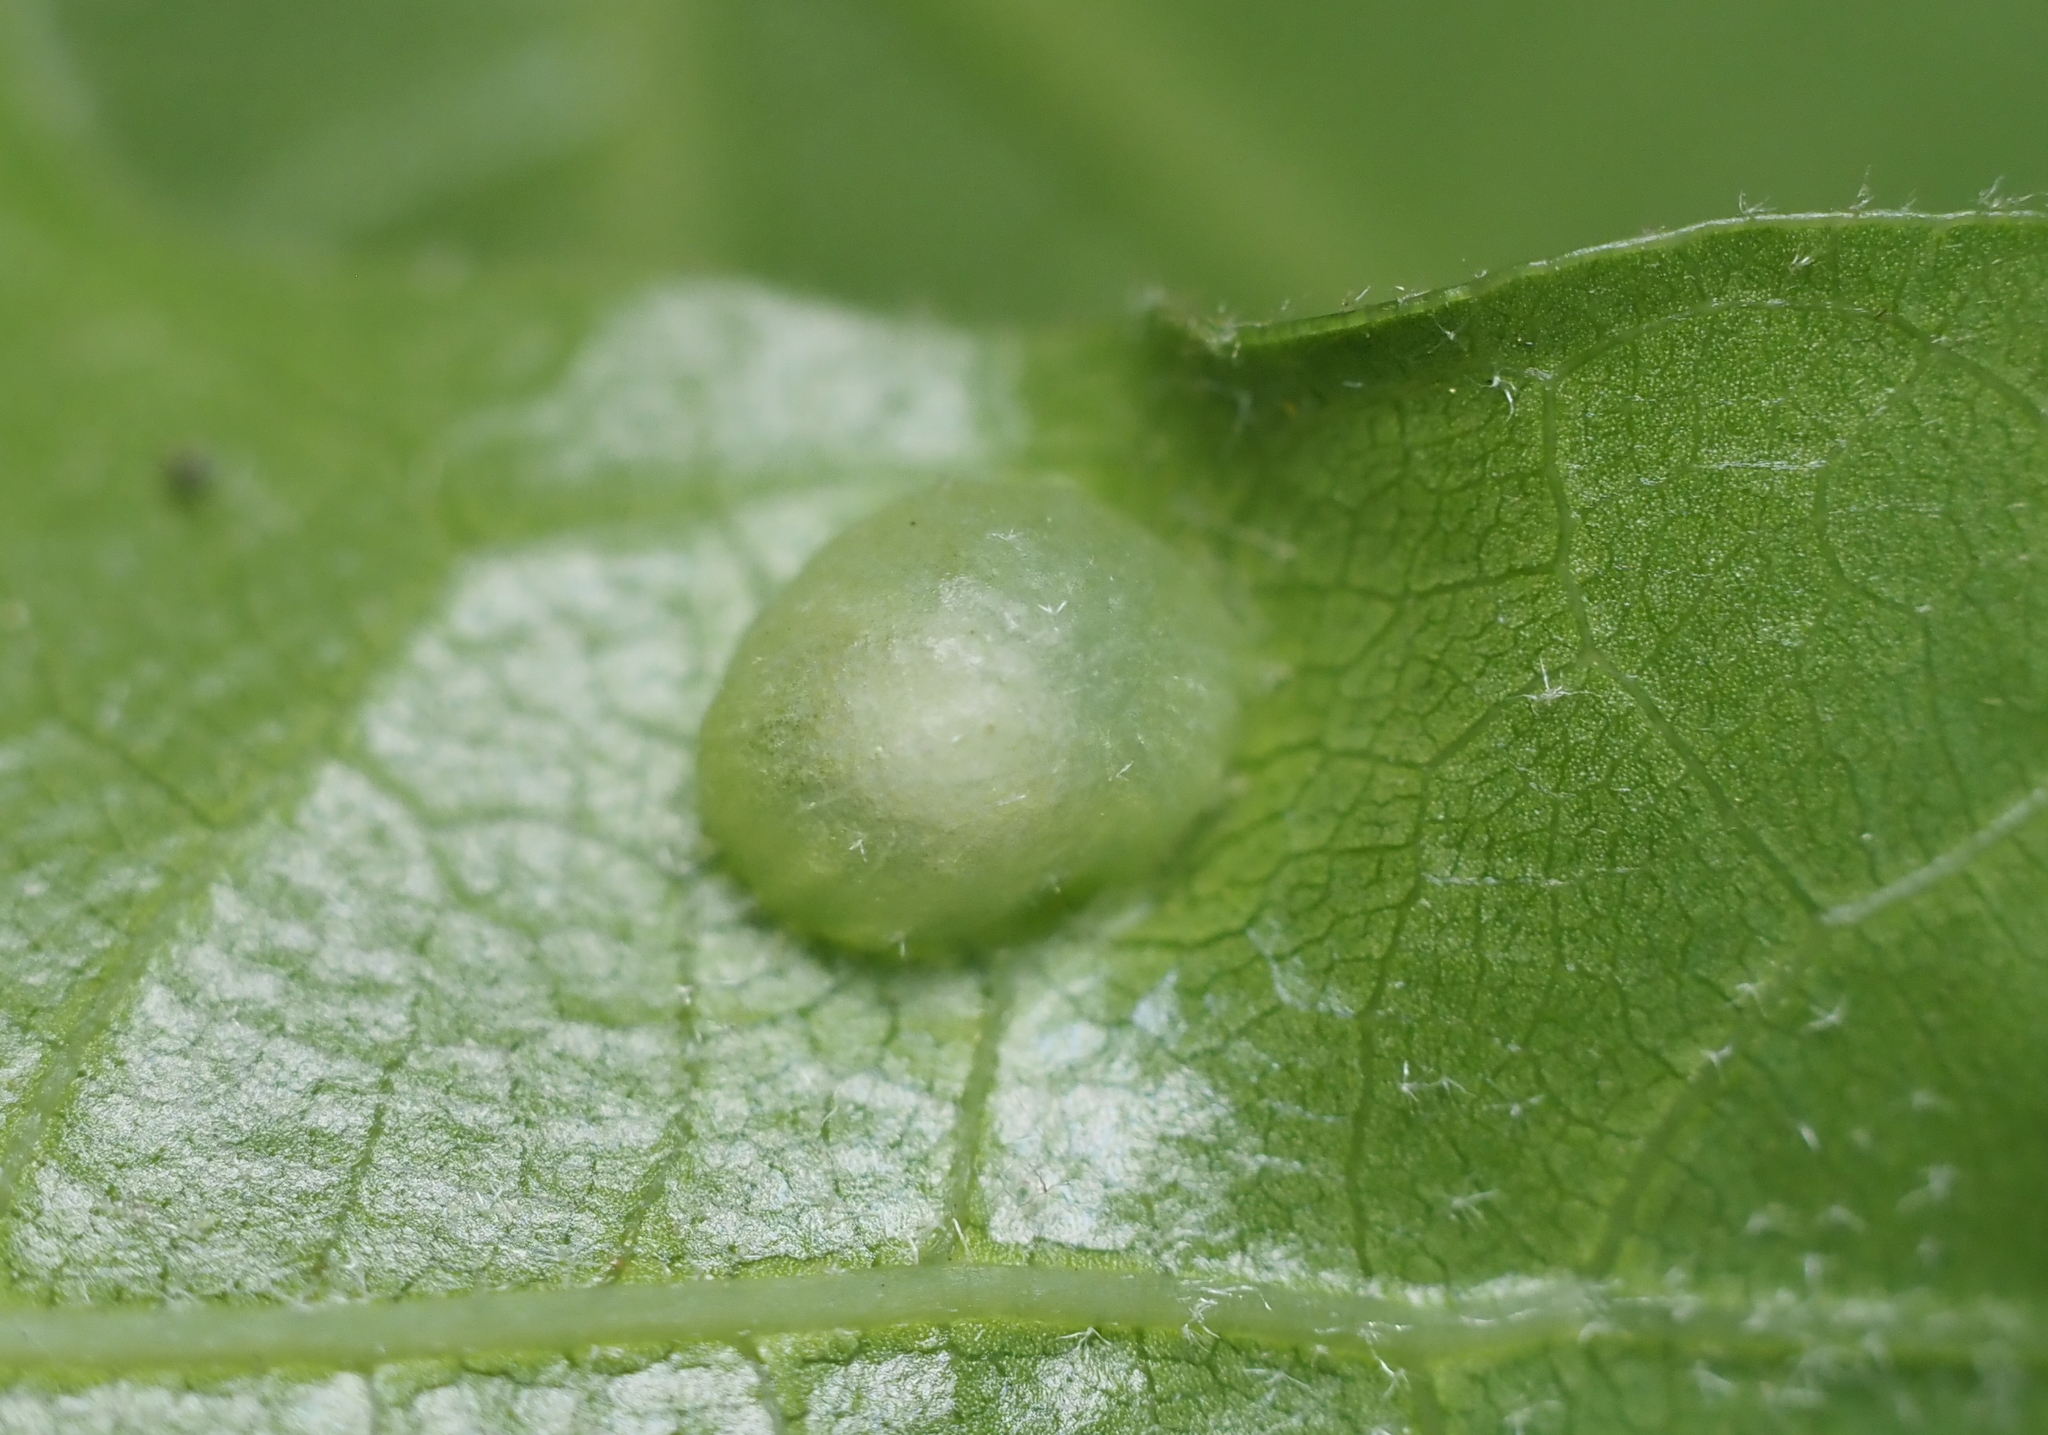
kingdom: Animalia
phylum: Arthropoda
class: Insecta
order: Hymenoptera
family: Cynipidae
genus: Dryocosmus
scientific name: Dryocosmus
